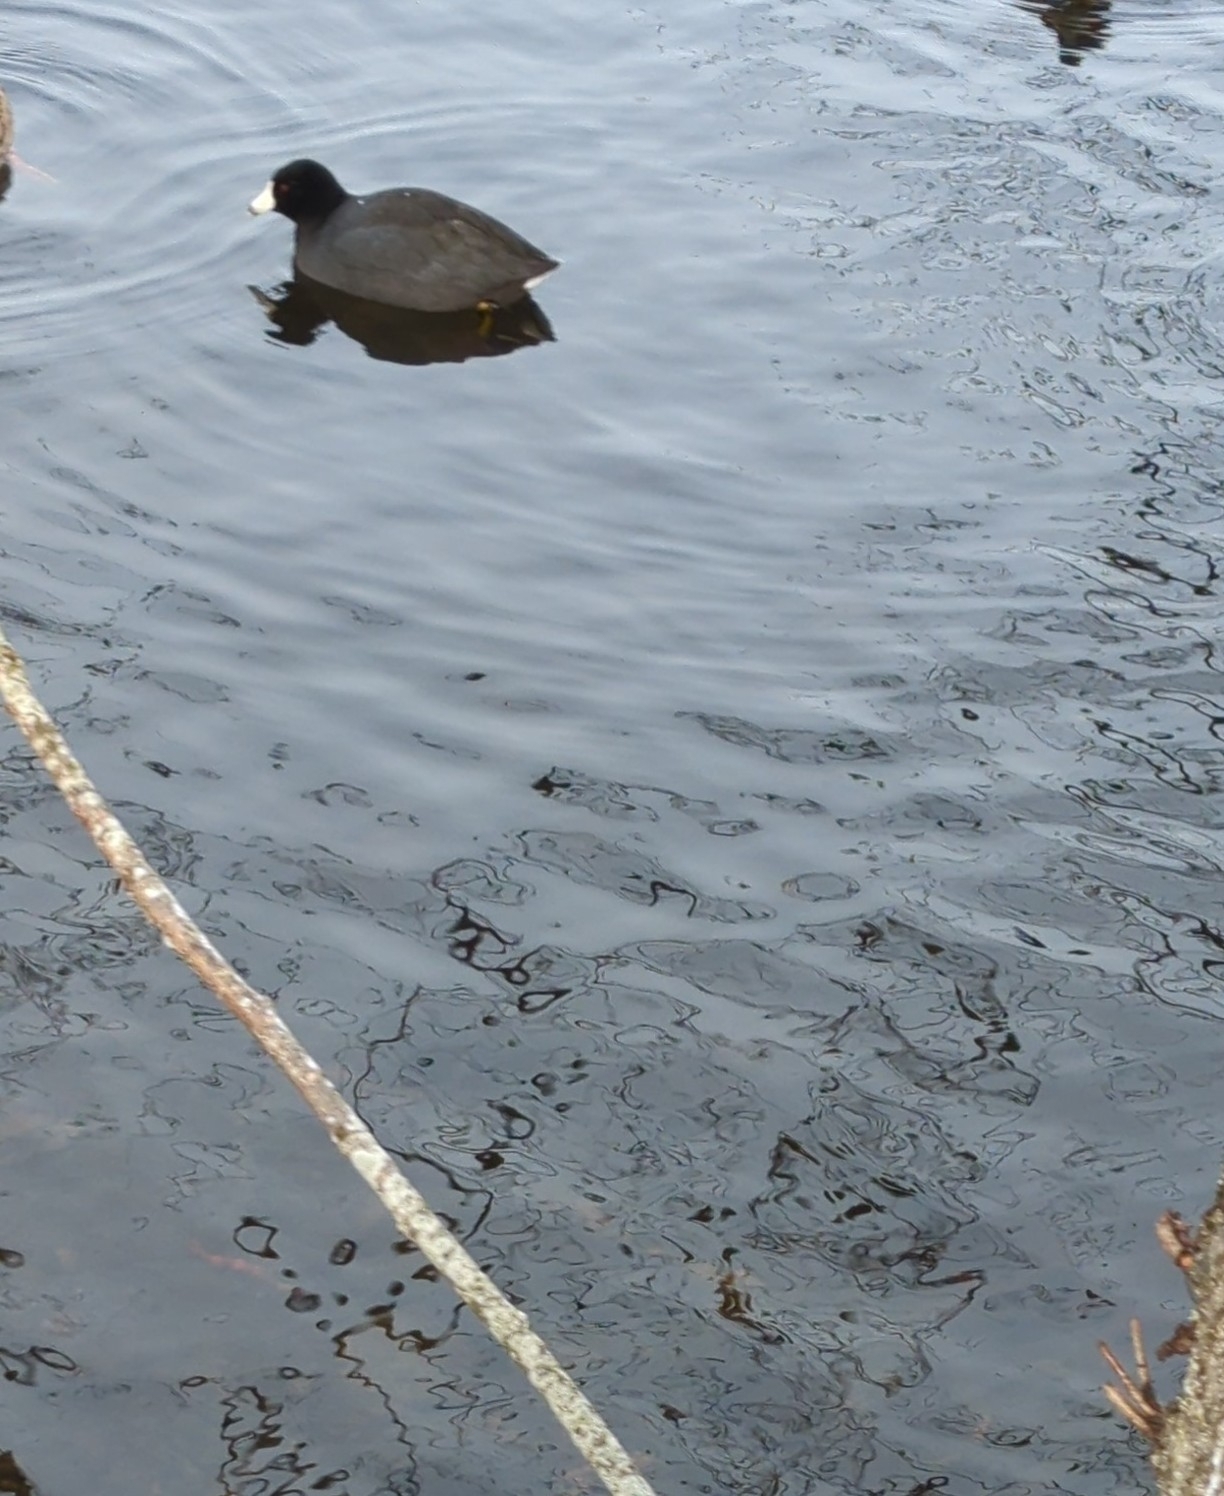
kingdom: Animalia
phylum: Chordata
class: Aves
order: Gruiformes
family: Rallidae
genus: Fulica
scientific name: Fulica americana
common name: American coot
